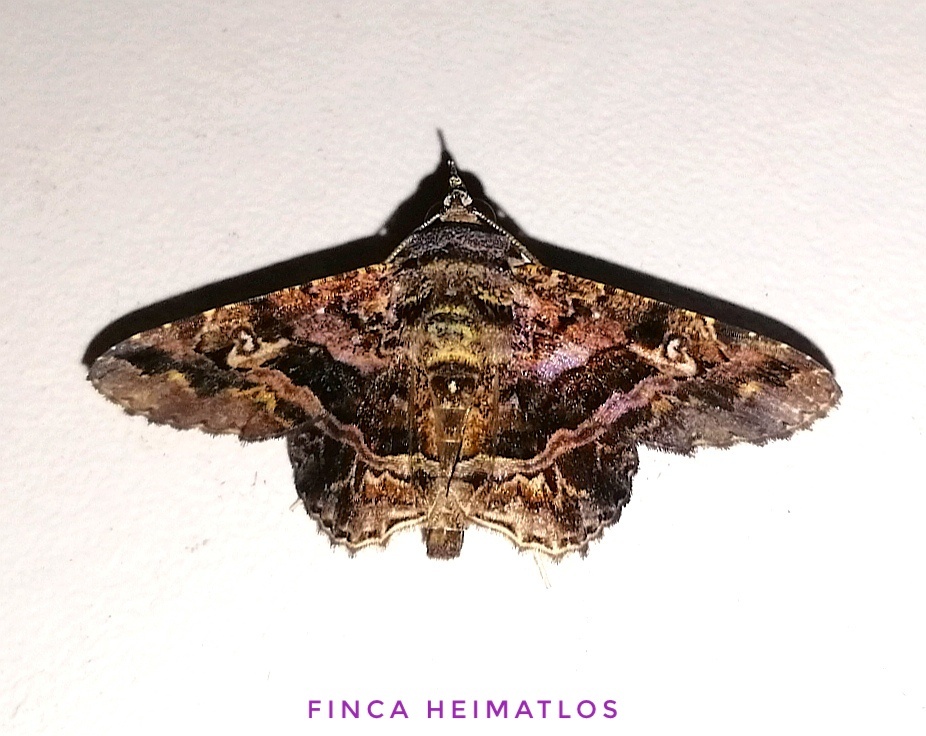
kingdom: Animalia
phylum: Arthropoda
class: Insecta
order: Lepidoptera
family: Erebidae
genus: Helia
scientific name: Helia calligramma
